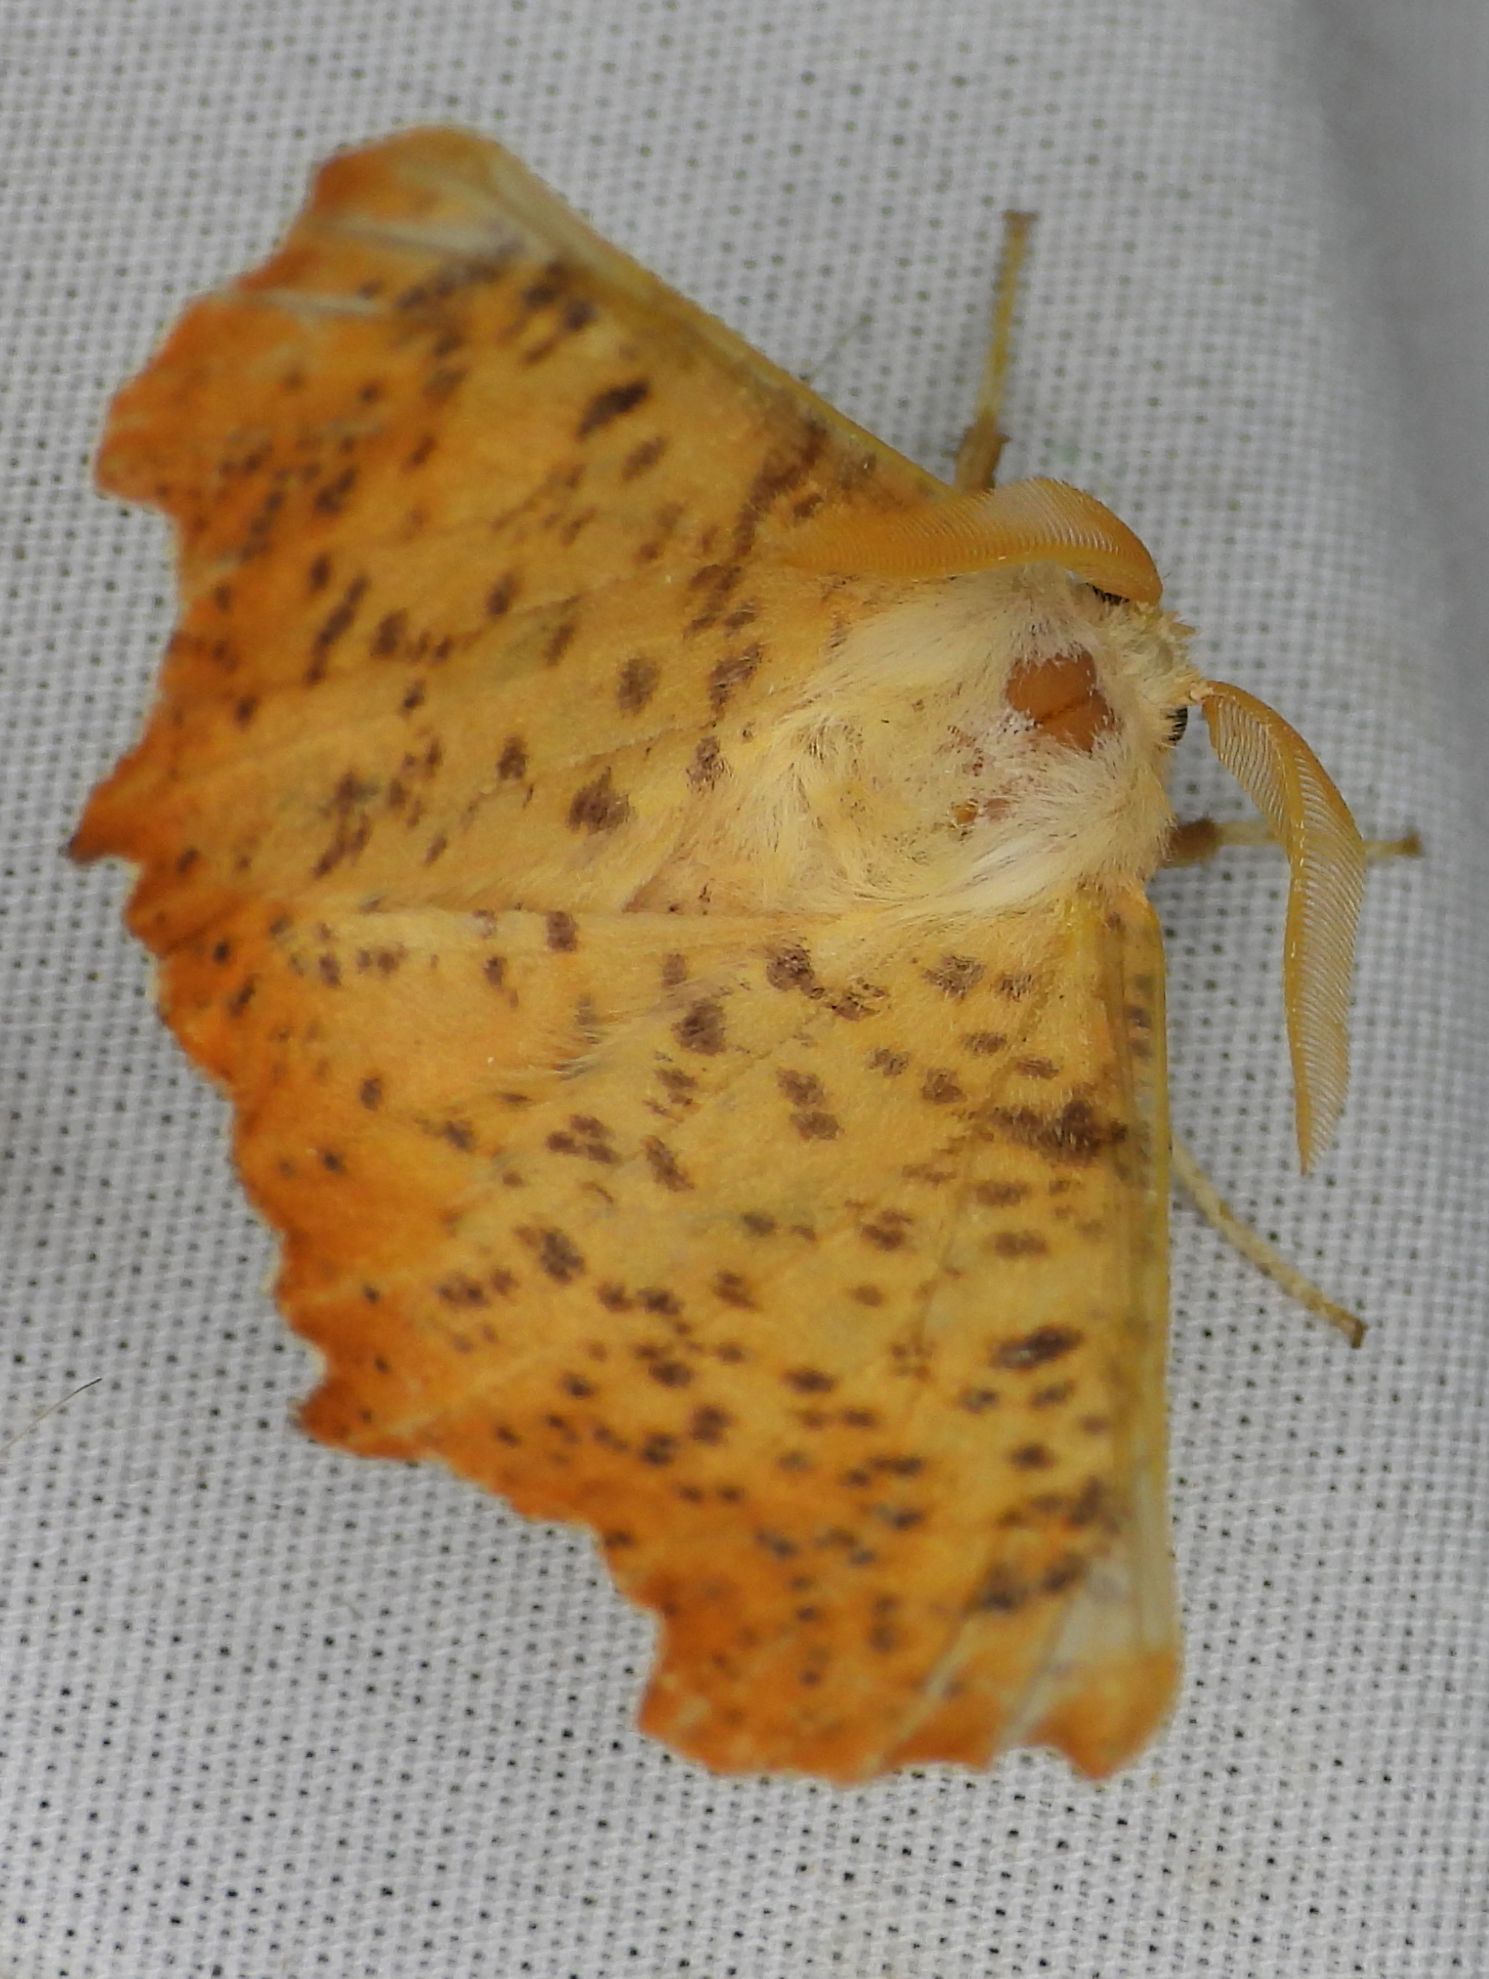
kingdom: Animalia
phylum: Arthropoda
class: Insecta
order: Lepidoptera
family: Geometridae
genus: Ennomos
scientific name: Ennomos magnaria
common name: Maple spanworm
